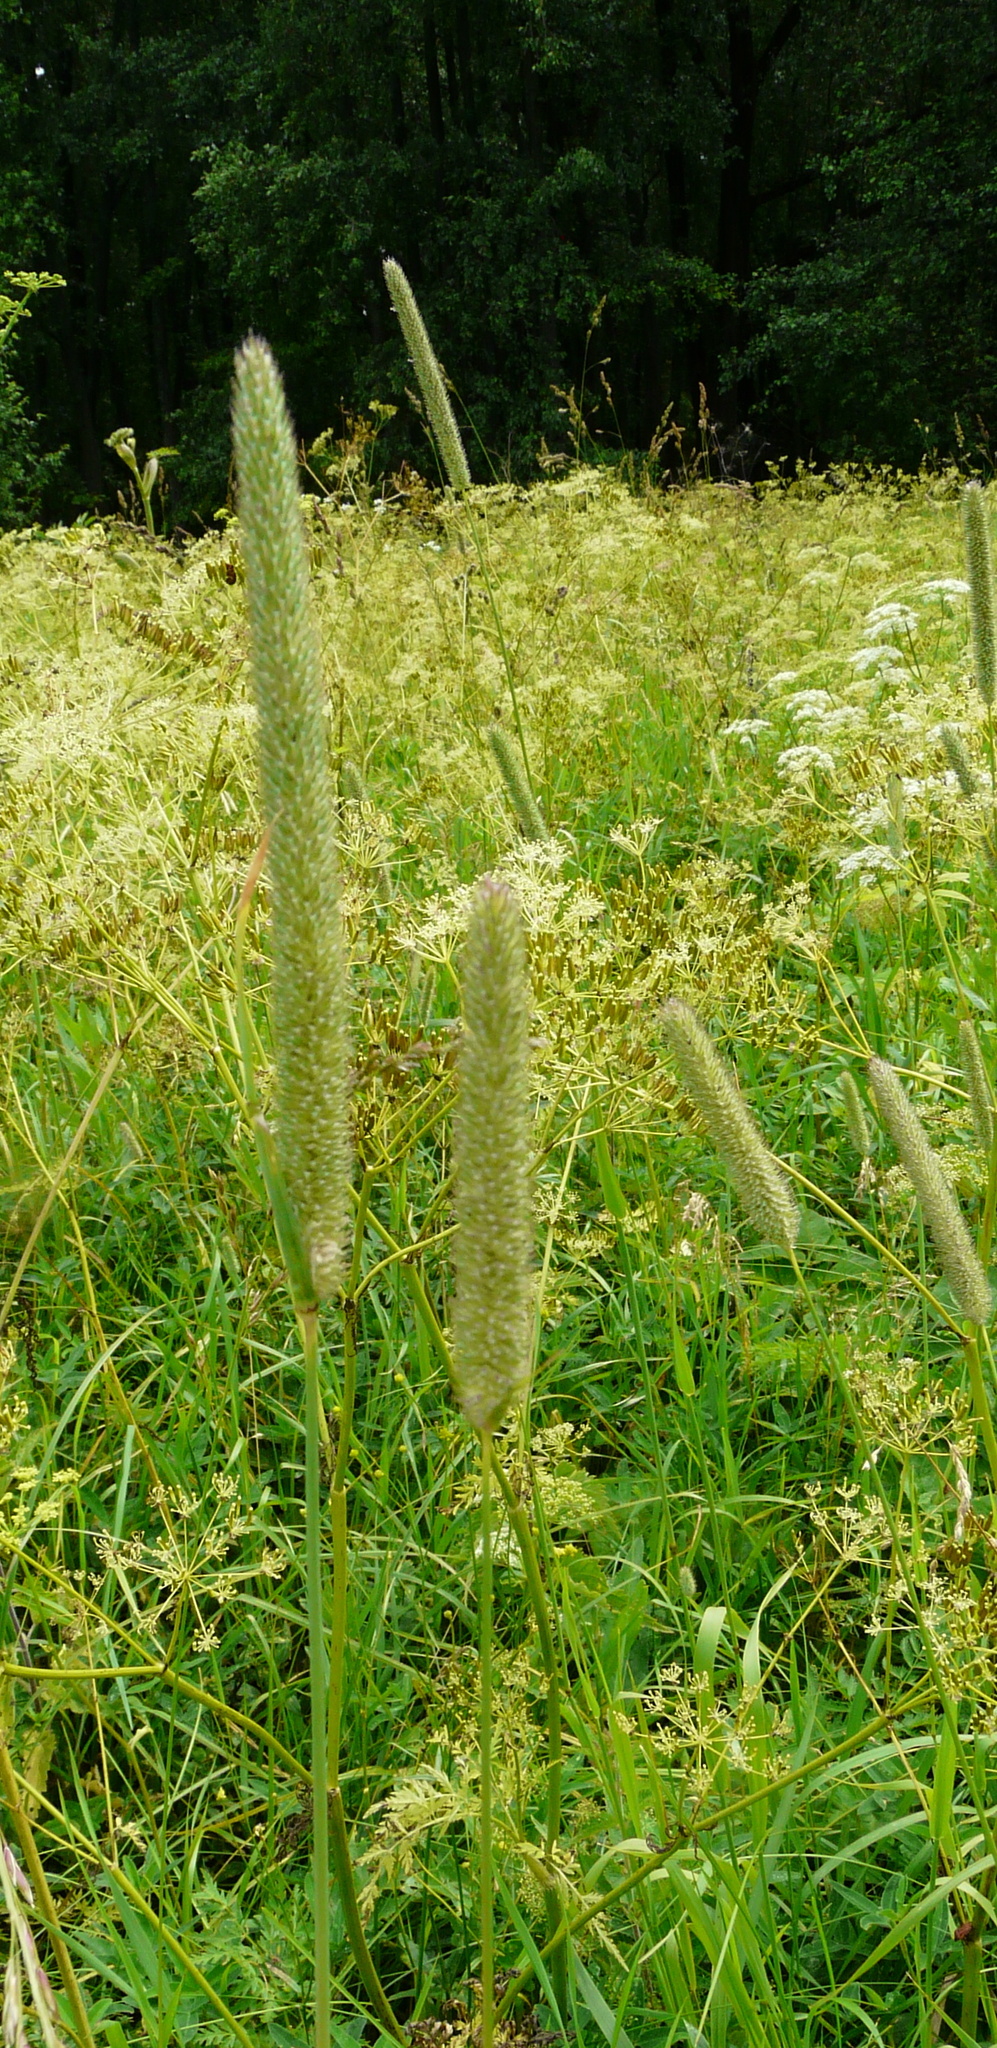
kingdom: Plantae
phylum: Tracheophyta
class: Liliopsida
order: Poales
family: Poaceae
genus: Phleum
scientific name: Phleum pratense
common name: Timothy grass
